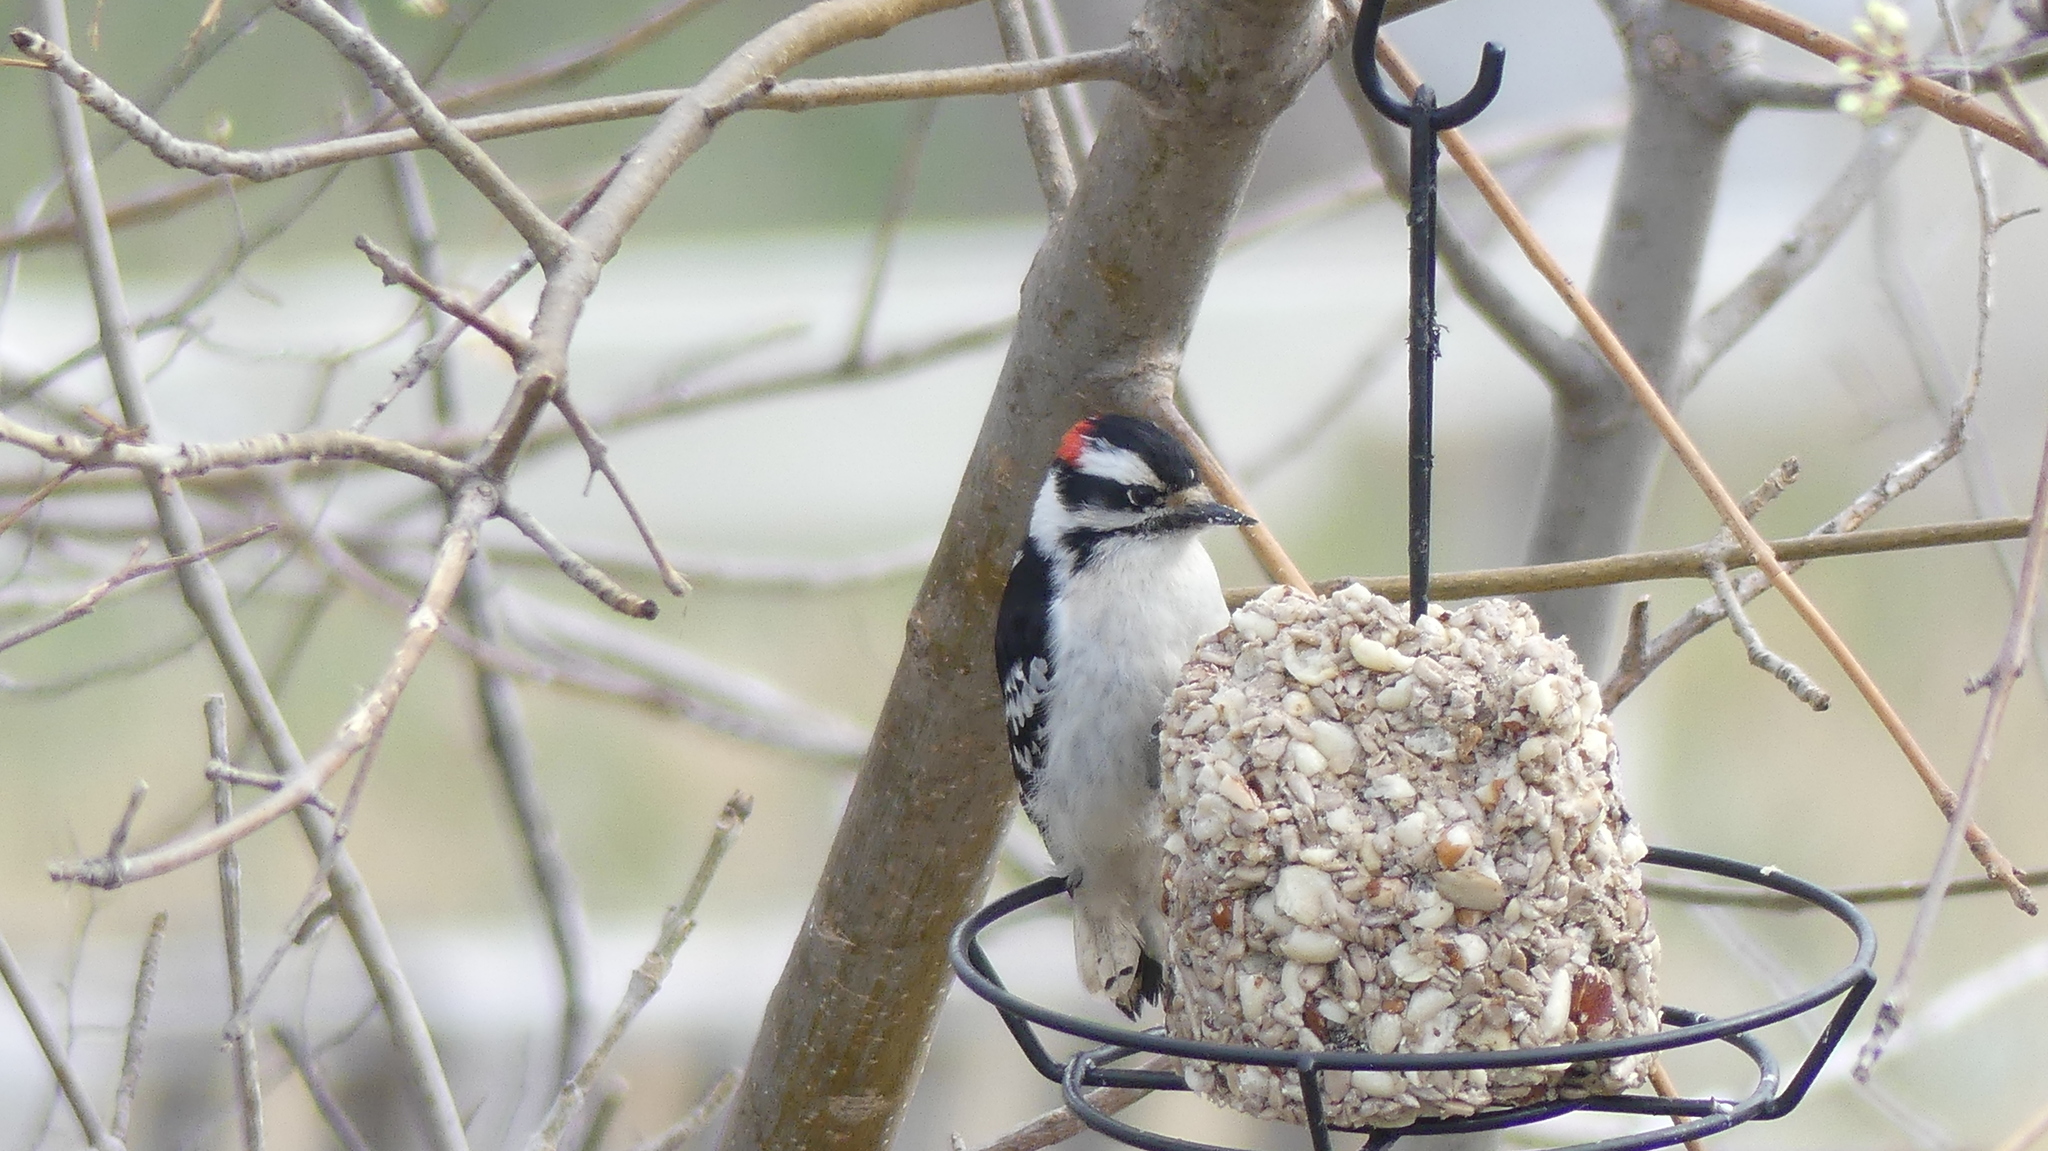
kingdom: Animalia
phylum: Chordata
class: Aves
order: Piciformes
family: Picidae
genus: Dryobates
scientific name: Dryobates pubescens
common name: Downy woodpecker
